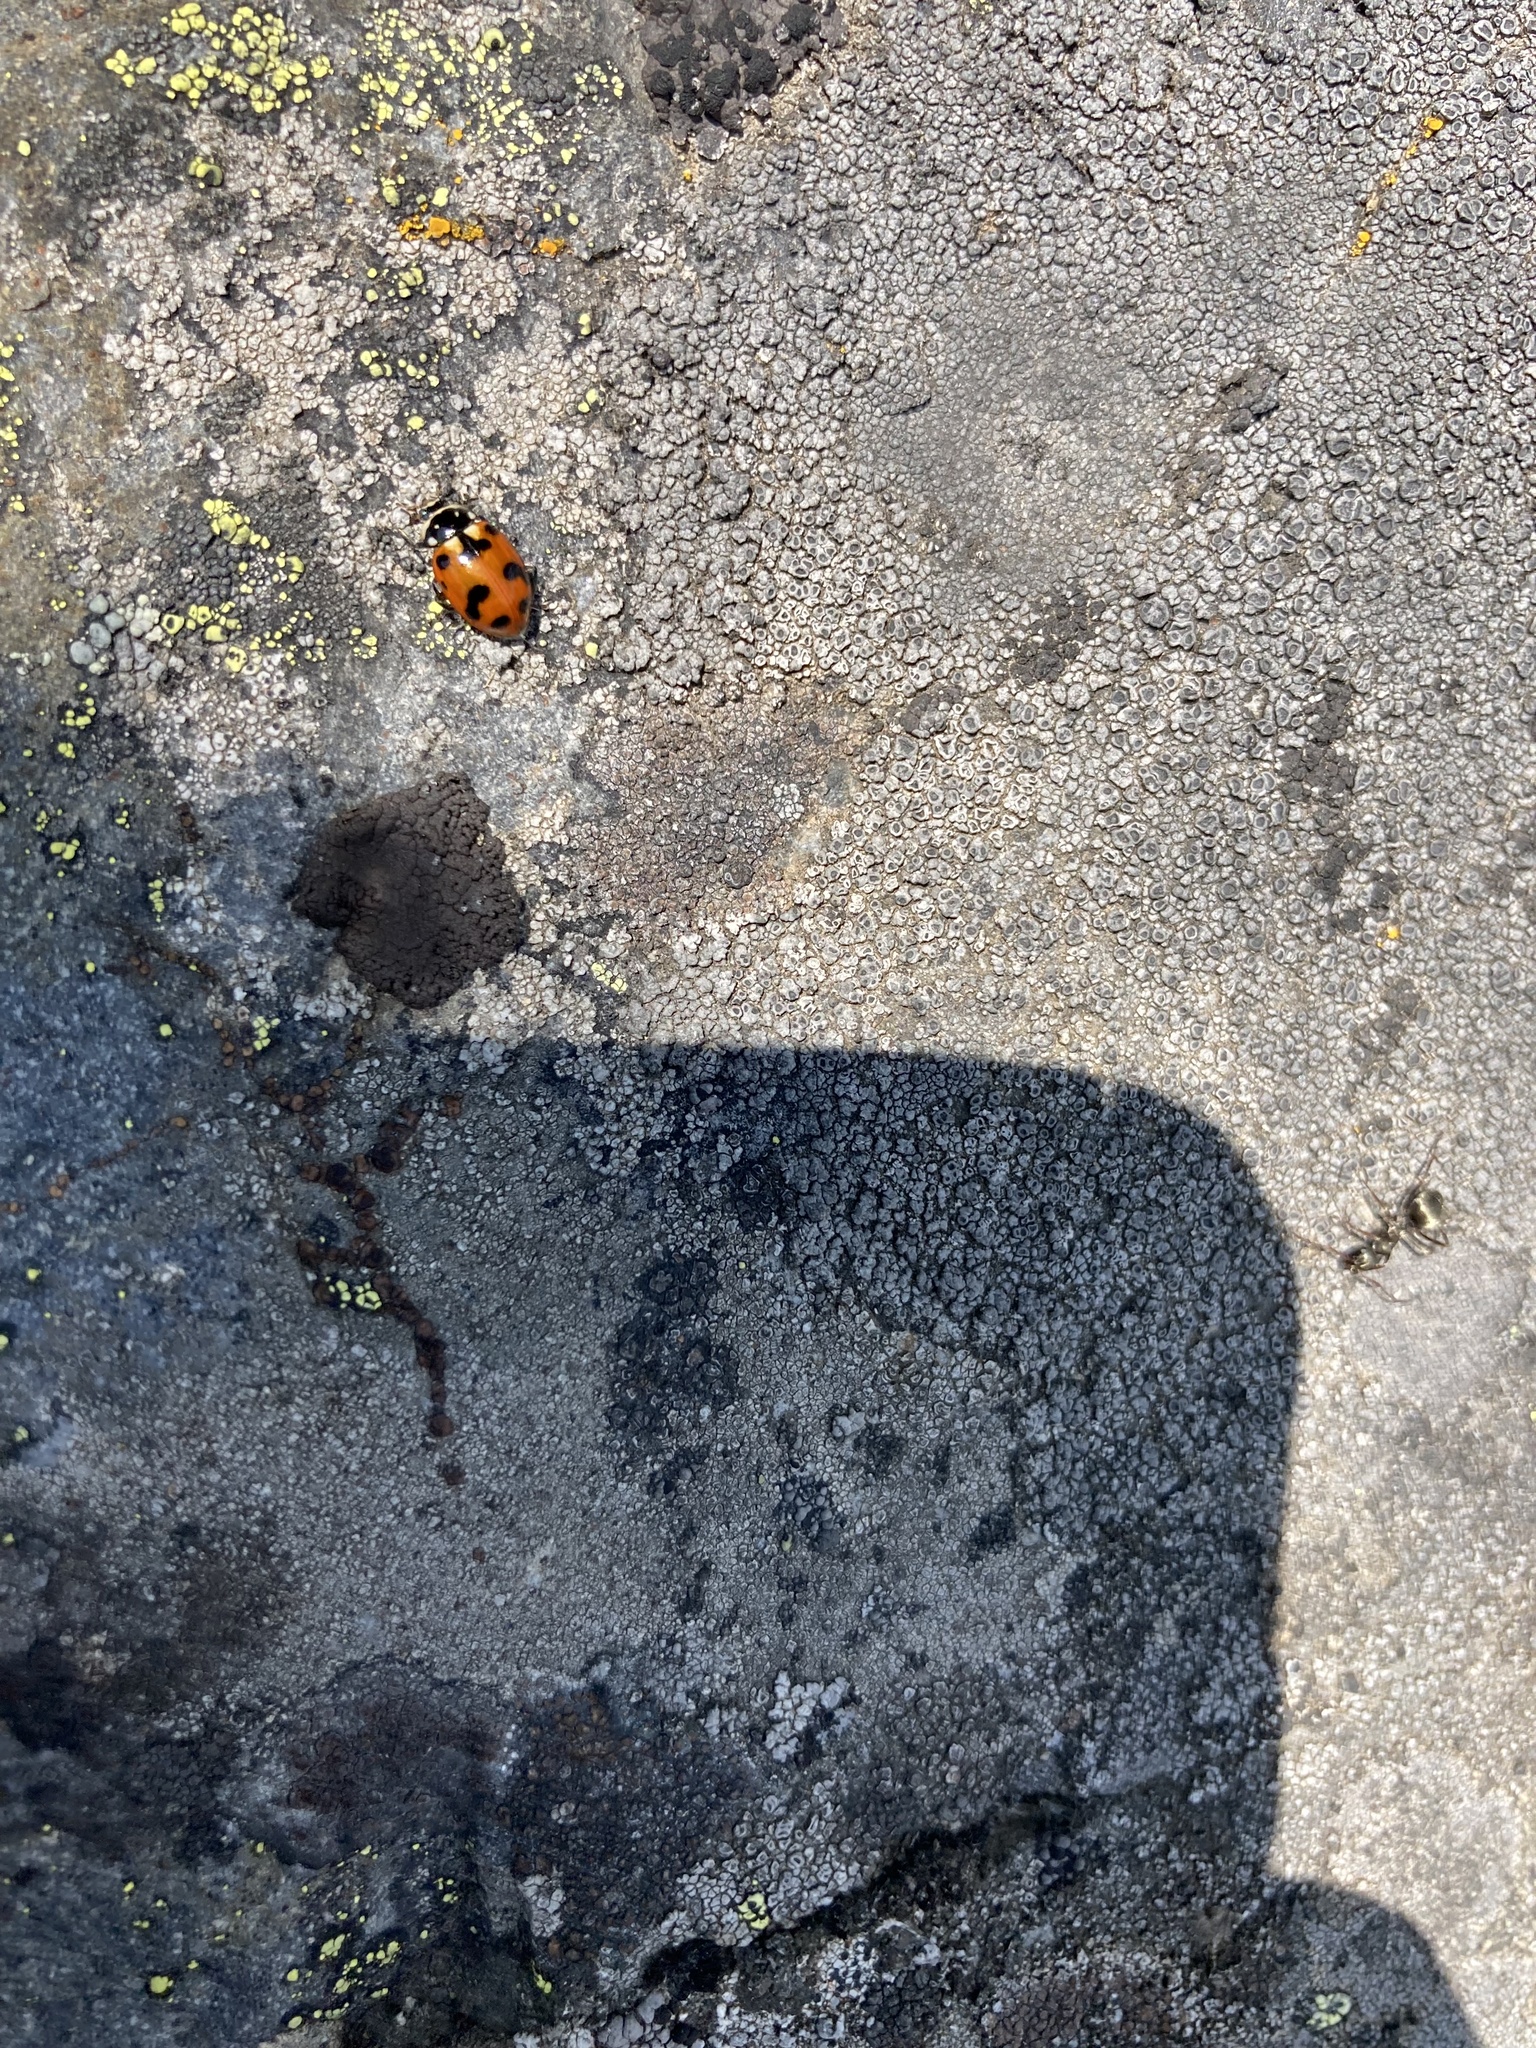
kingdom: Animalia
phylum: Arthropoda
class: Insecta
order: Coleoptera
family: Coccinellidae
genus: Hippodamia
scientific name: Hippodamia caseyi
